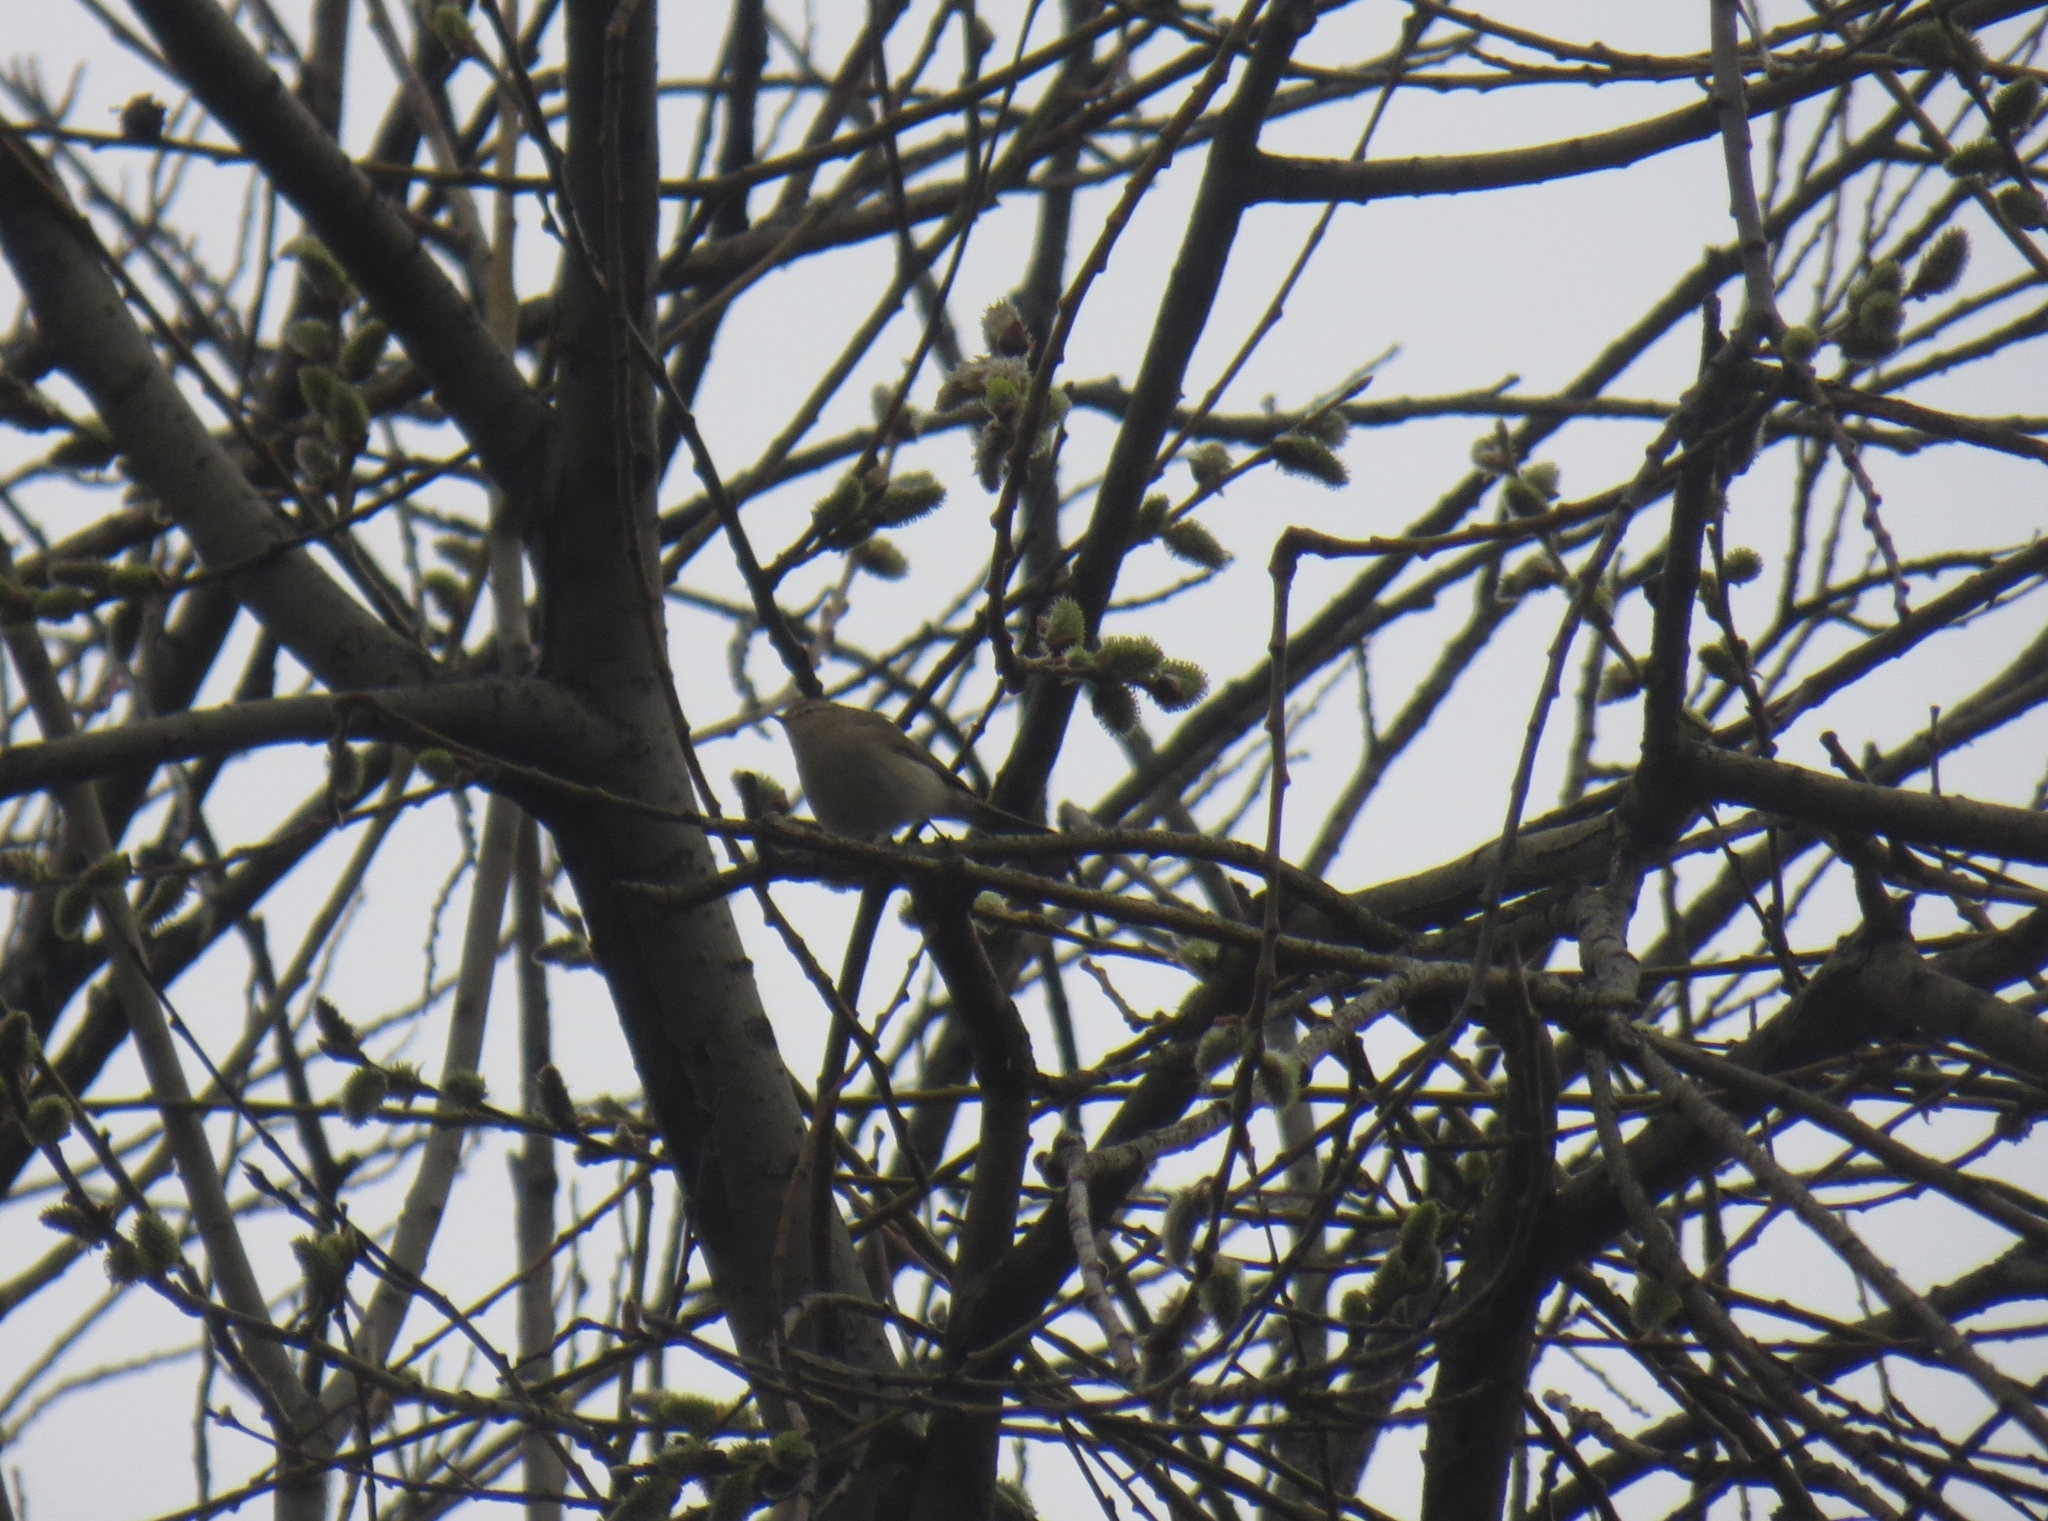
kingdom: Animalia
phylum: Chordata
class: Aves
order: Passeriformes
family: Phylloscopidae
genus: Phylloscopus
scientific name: Phylloscopus collybita
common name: Common chiffchaff
